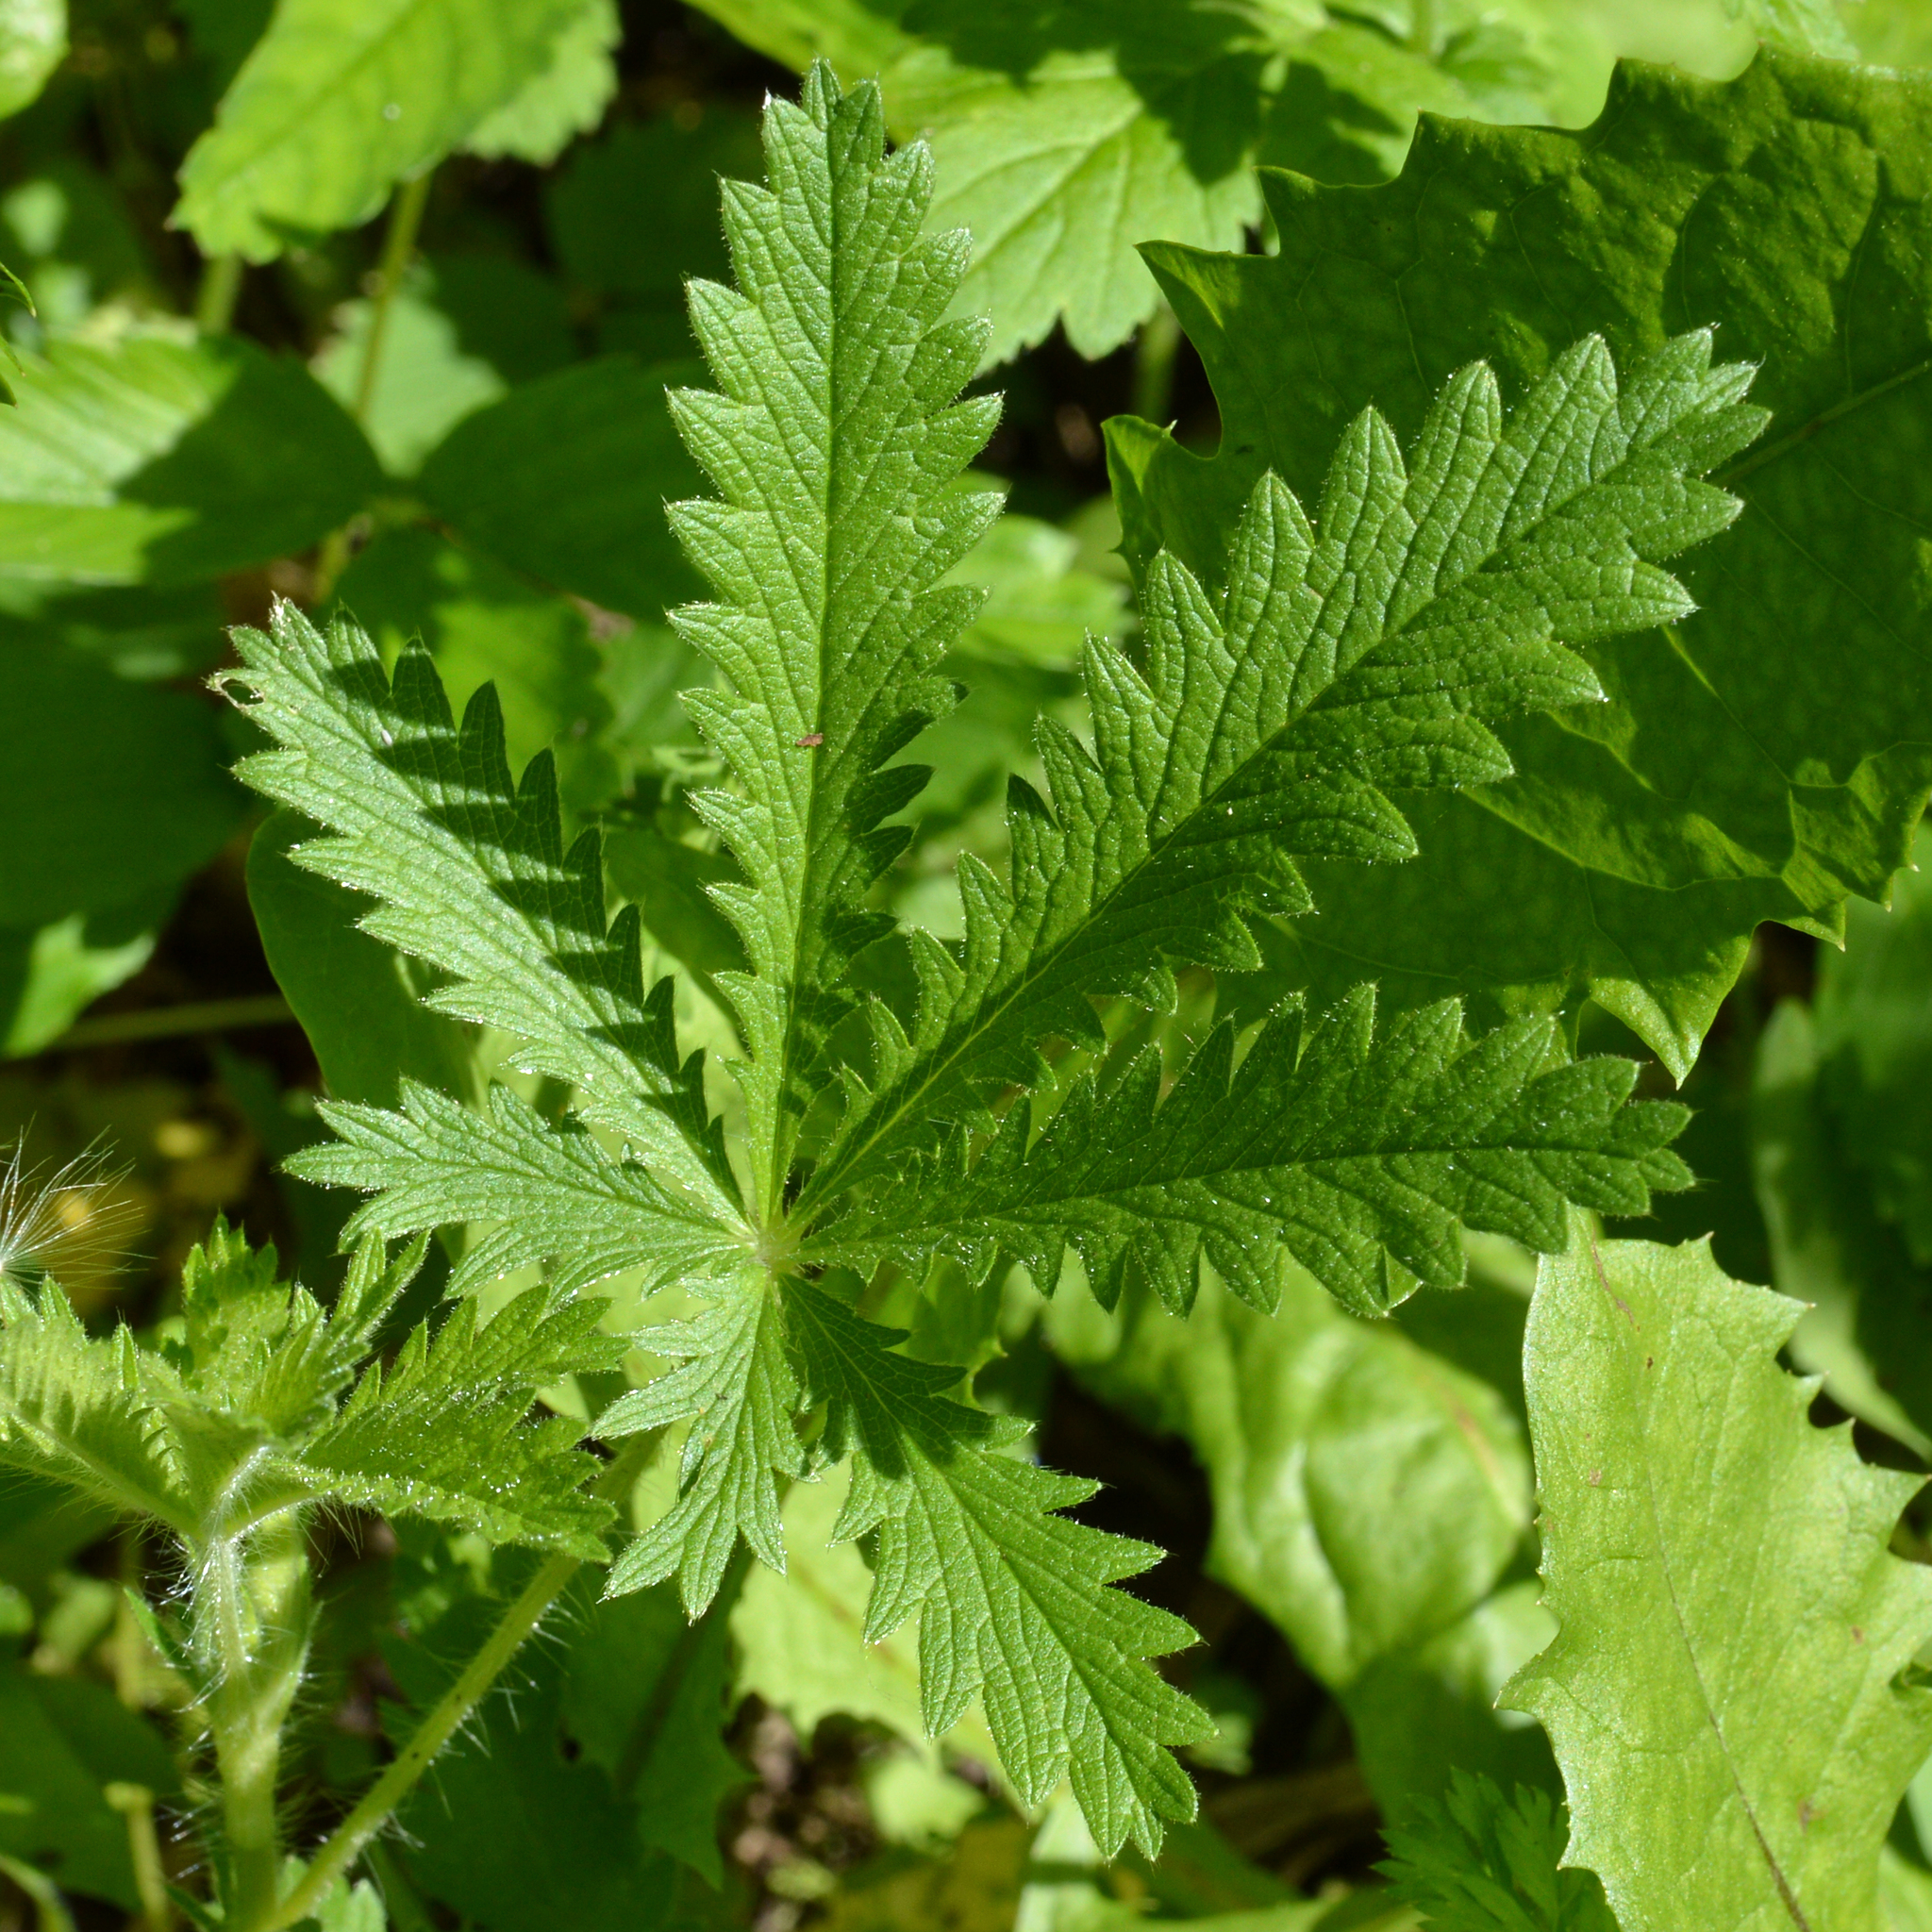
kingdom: Plantae
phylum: Tracheophyta
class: Magnoliopsida
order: Rosales
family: Rosaceae
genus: Potentilla
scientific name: Potentilla recta
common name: Sulphur cinquefoil
